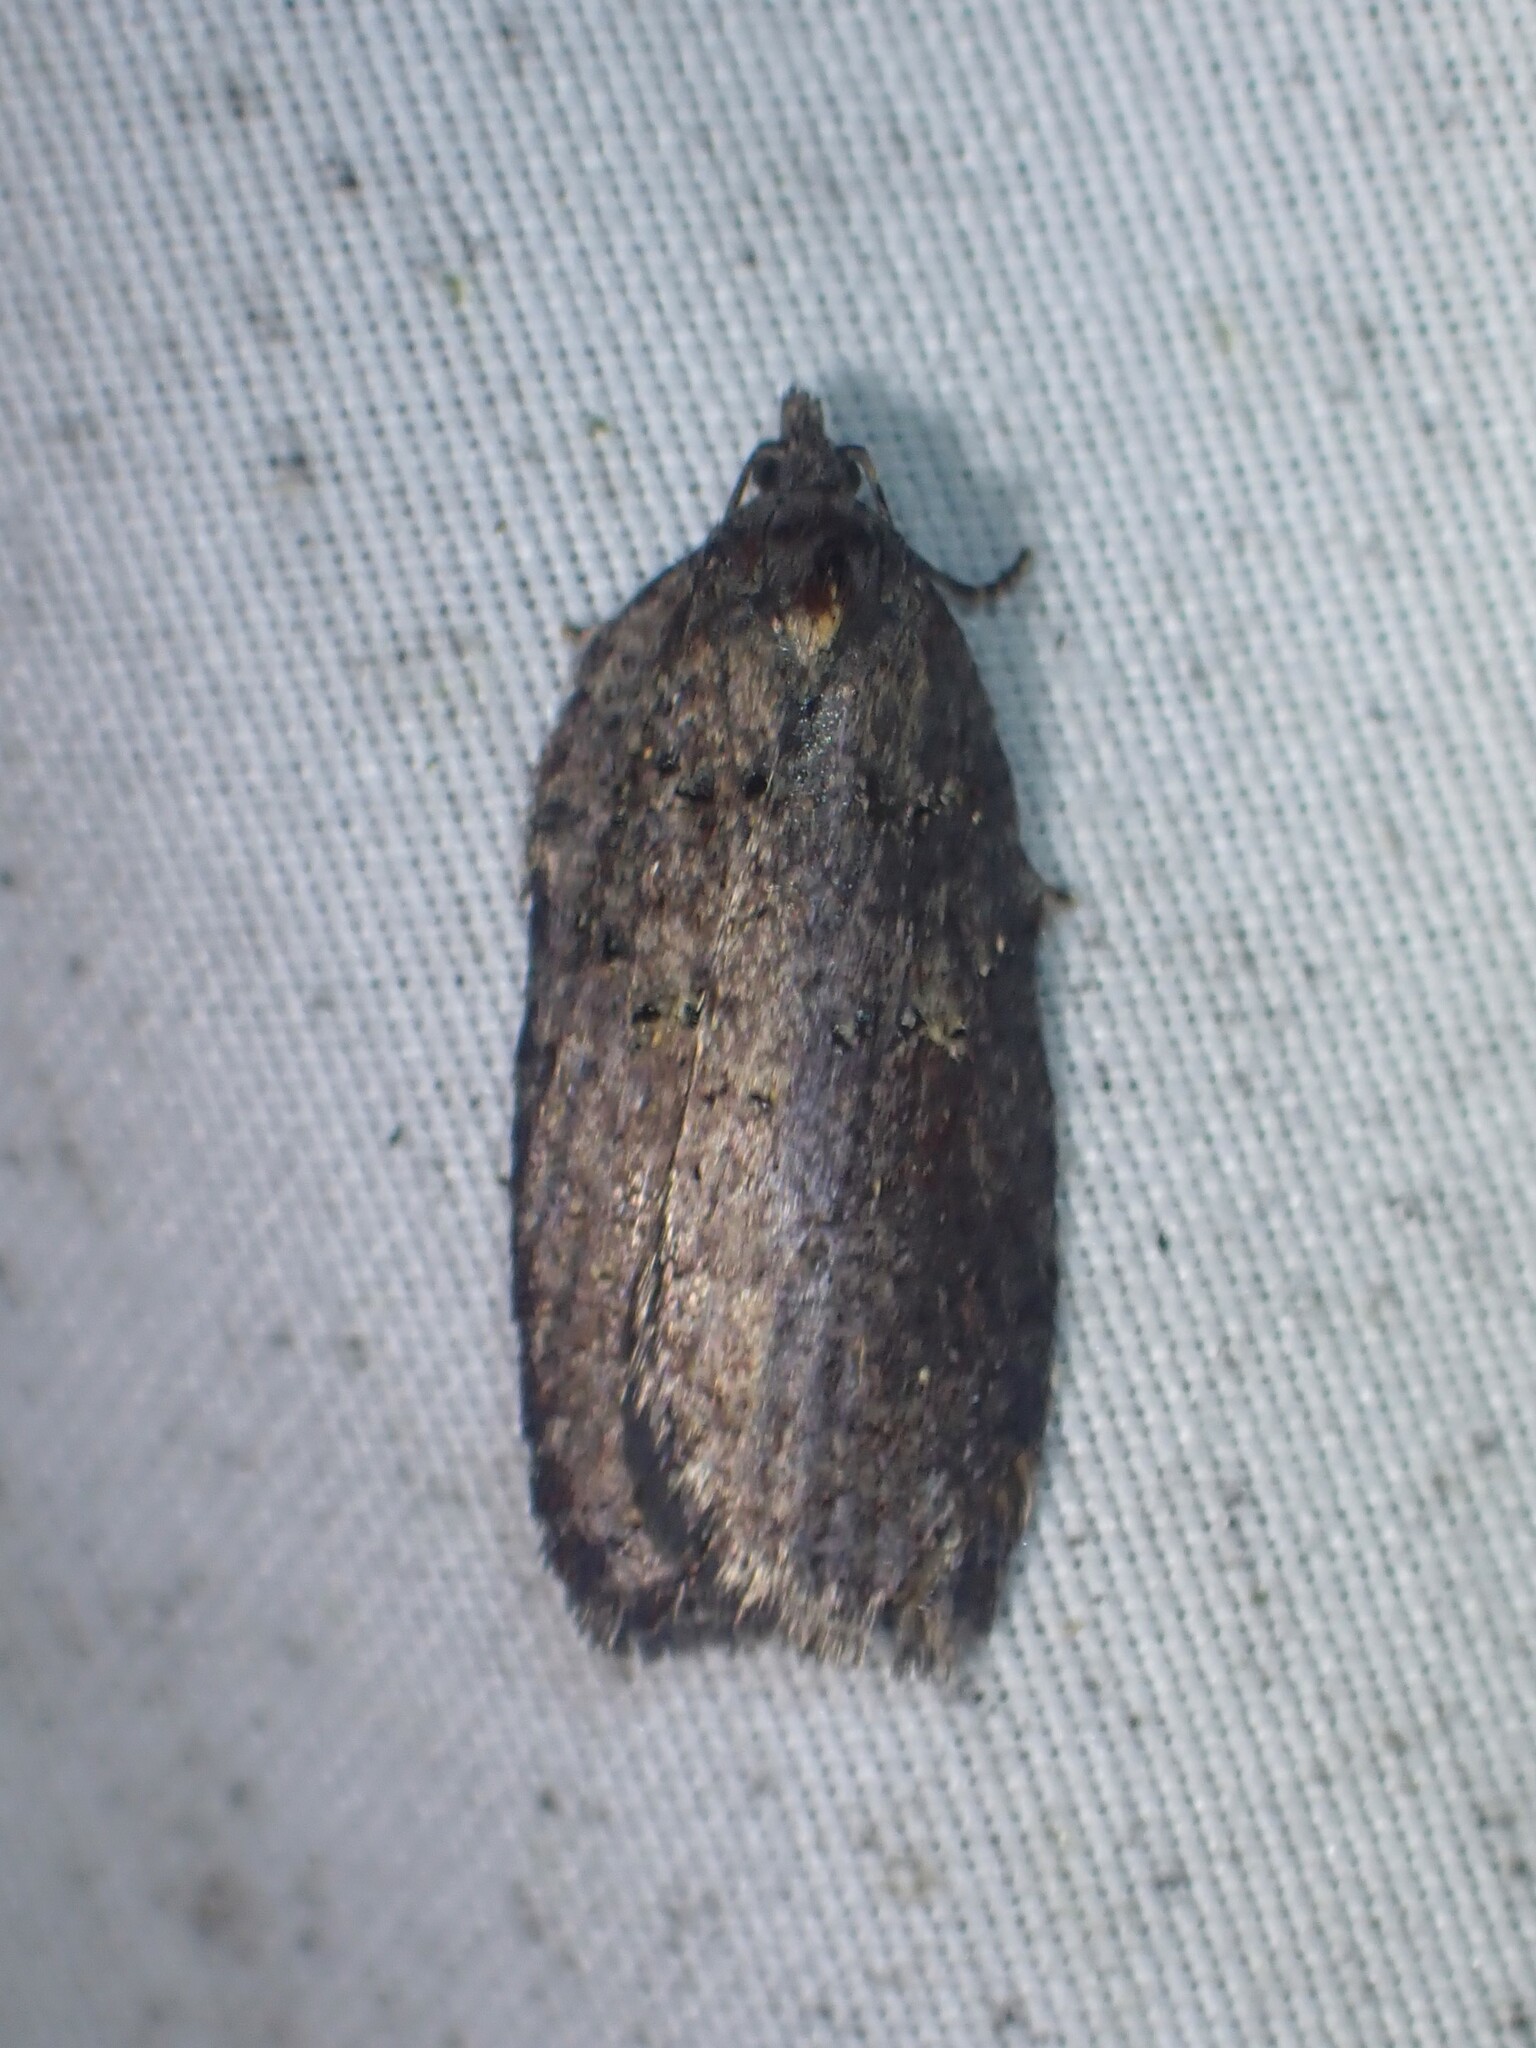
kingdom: Animalia
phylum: Arthropoda
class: Insecta
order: Lepidoptera
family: Tortricidae
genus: Acleris
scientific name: Acleris caliginosana
